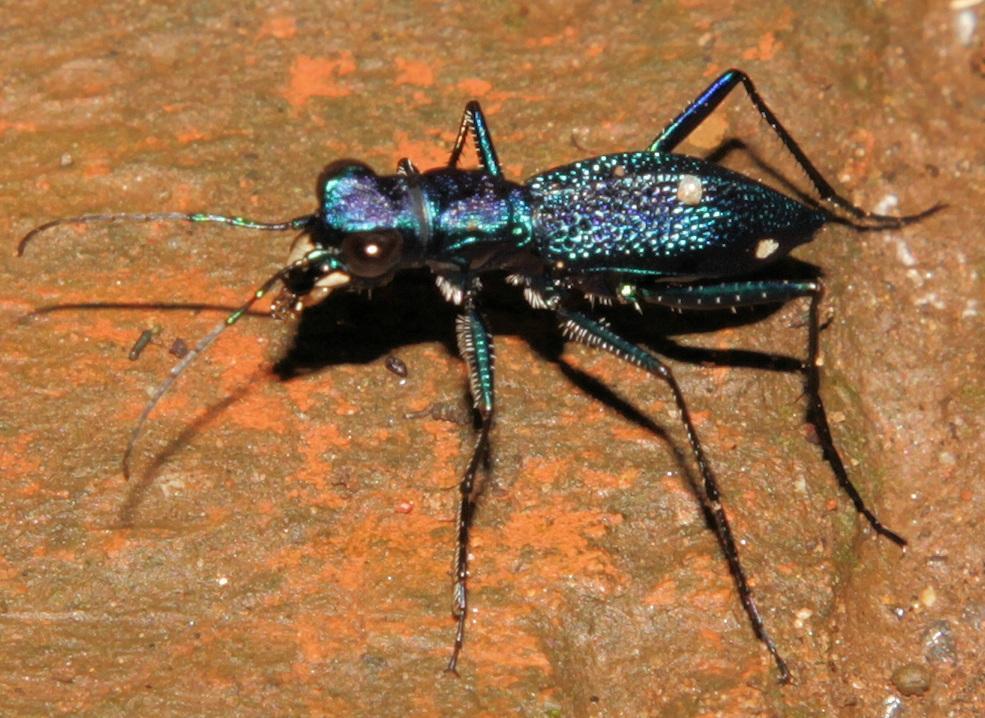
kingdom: Animalia
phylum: Arthropoda
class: Insecta
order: Coleoptera
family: Carabidae
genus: Dromica
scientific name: Dromica kolbei
